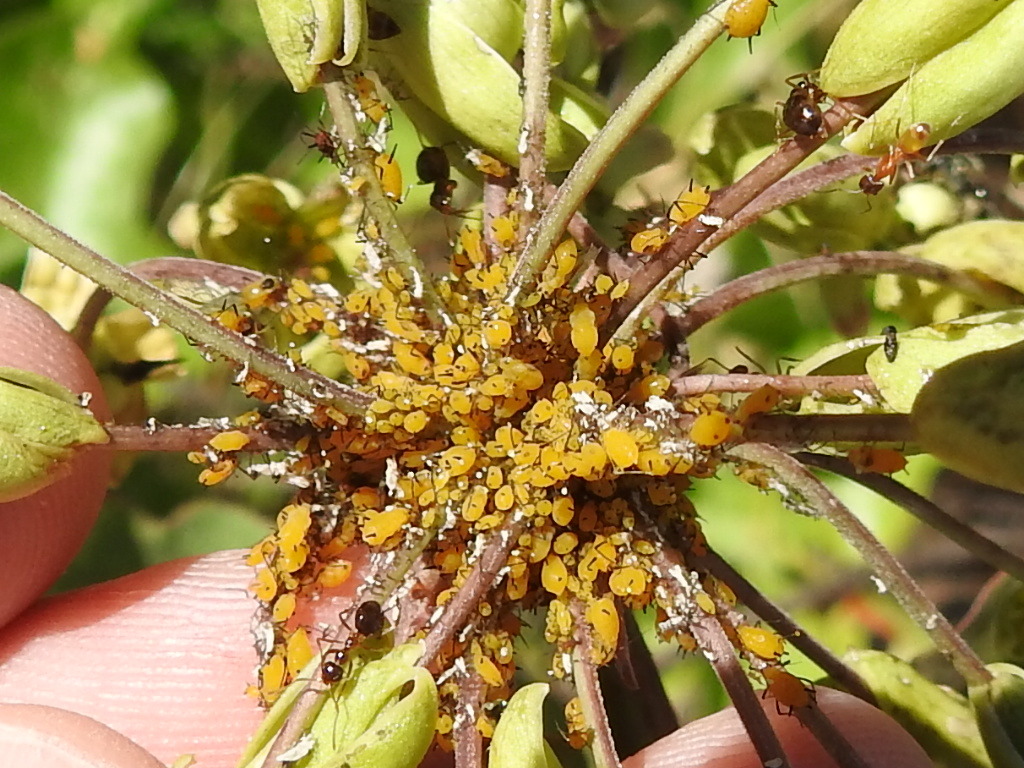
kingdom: Animalia
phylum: Arthropoda
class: Insecta
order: Hemiptera
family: Aphididae
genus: Aphis
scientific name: Aphis nerii
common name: Oleander aphid
